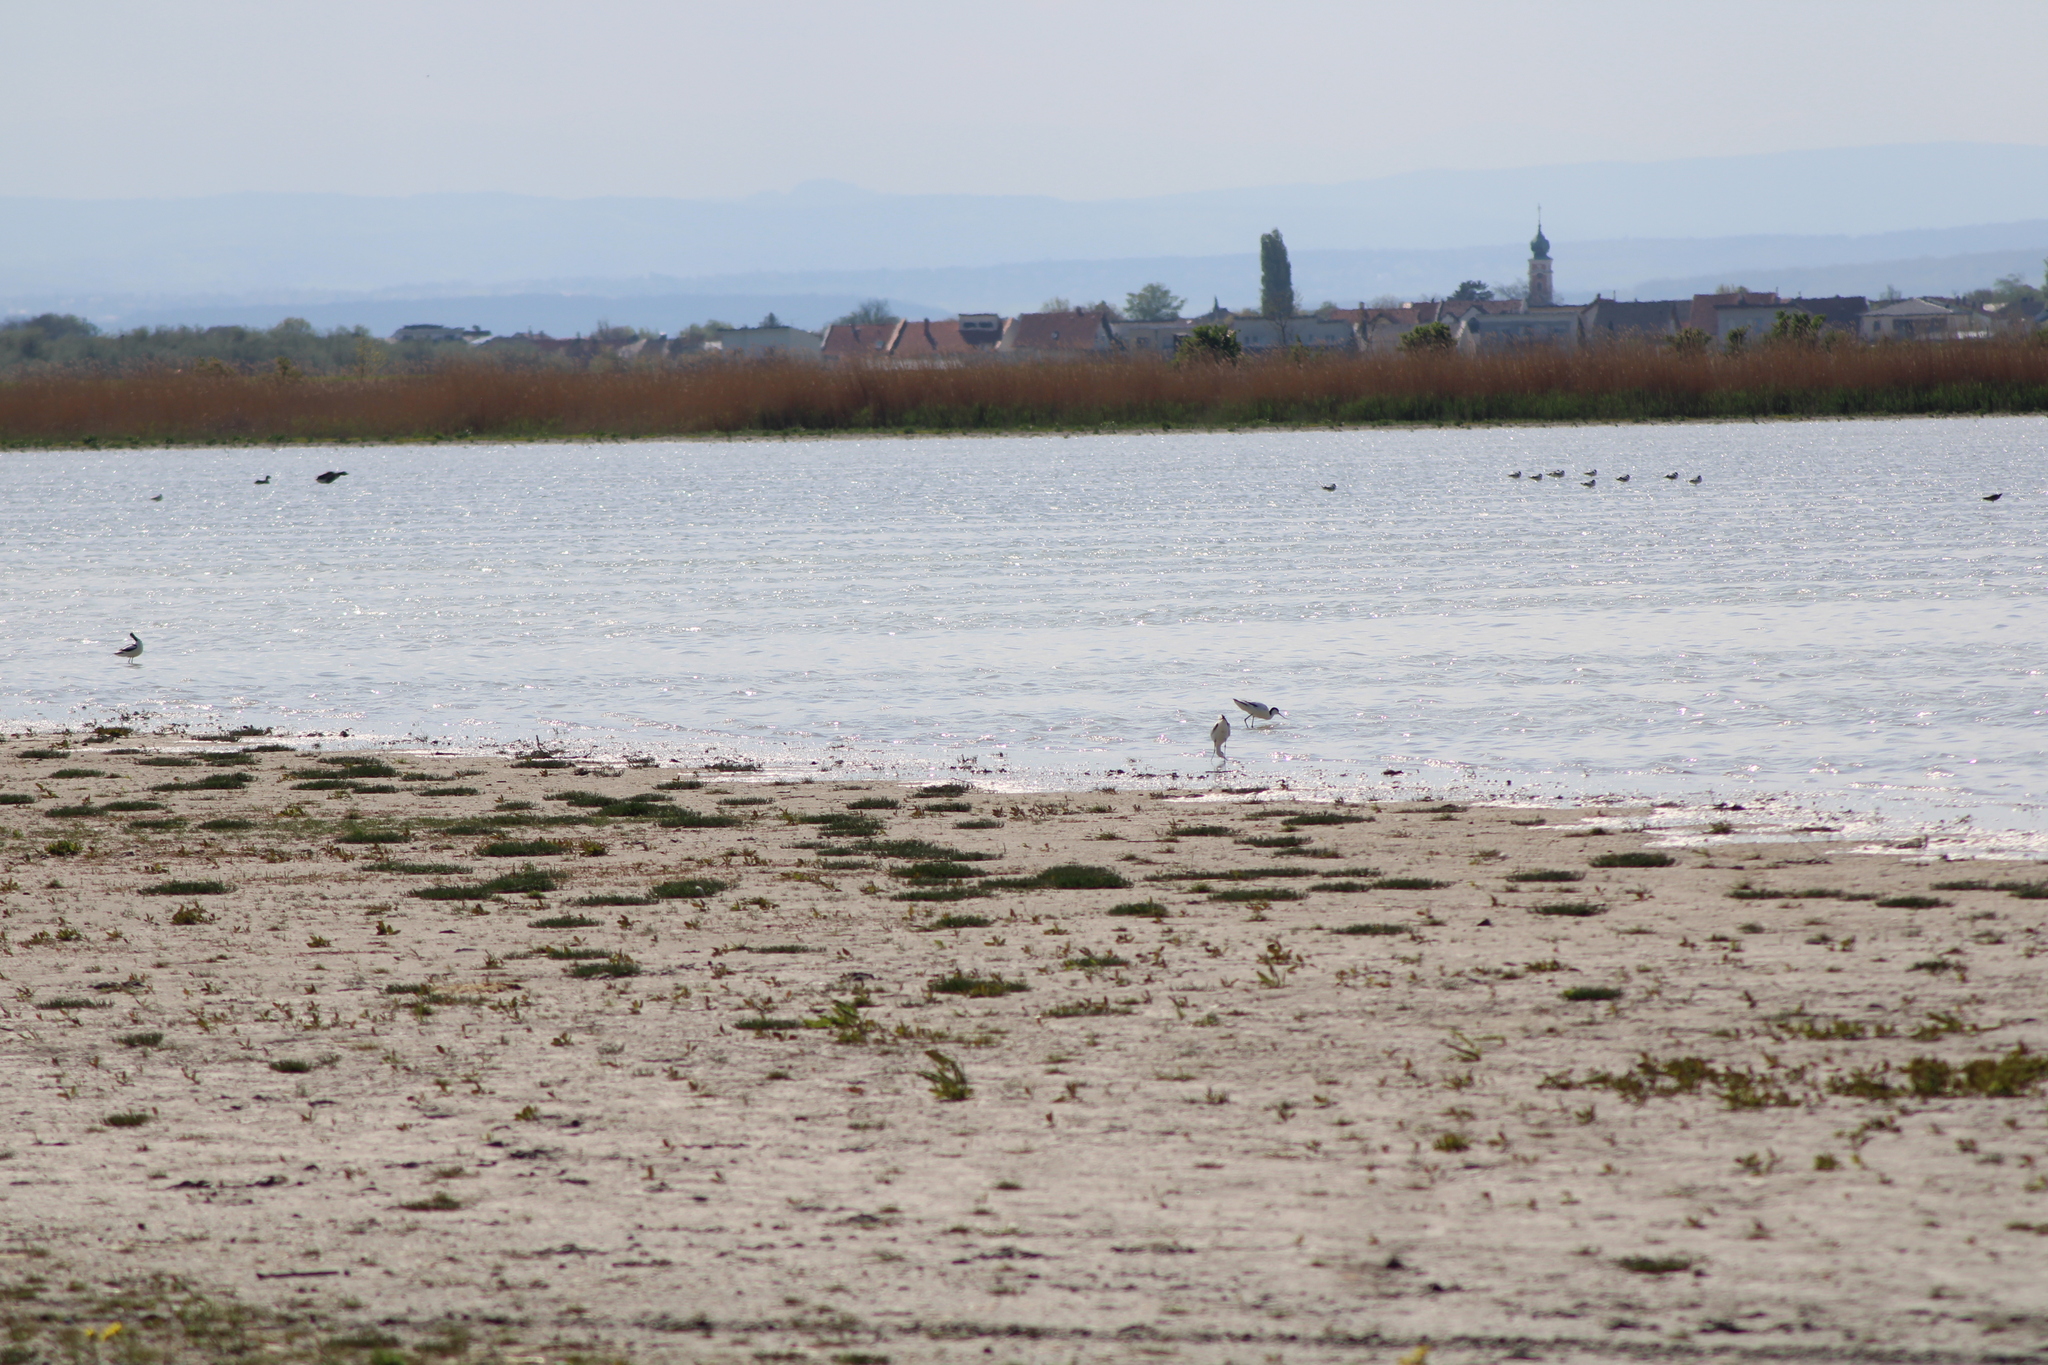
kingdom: Animalia
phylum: Chordata
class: Aves
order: Charadriiformes
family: Recurvirostridae
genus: Recurvirostra
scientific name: Recurvirostra avosetta
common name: Pied avocet
